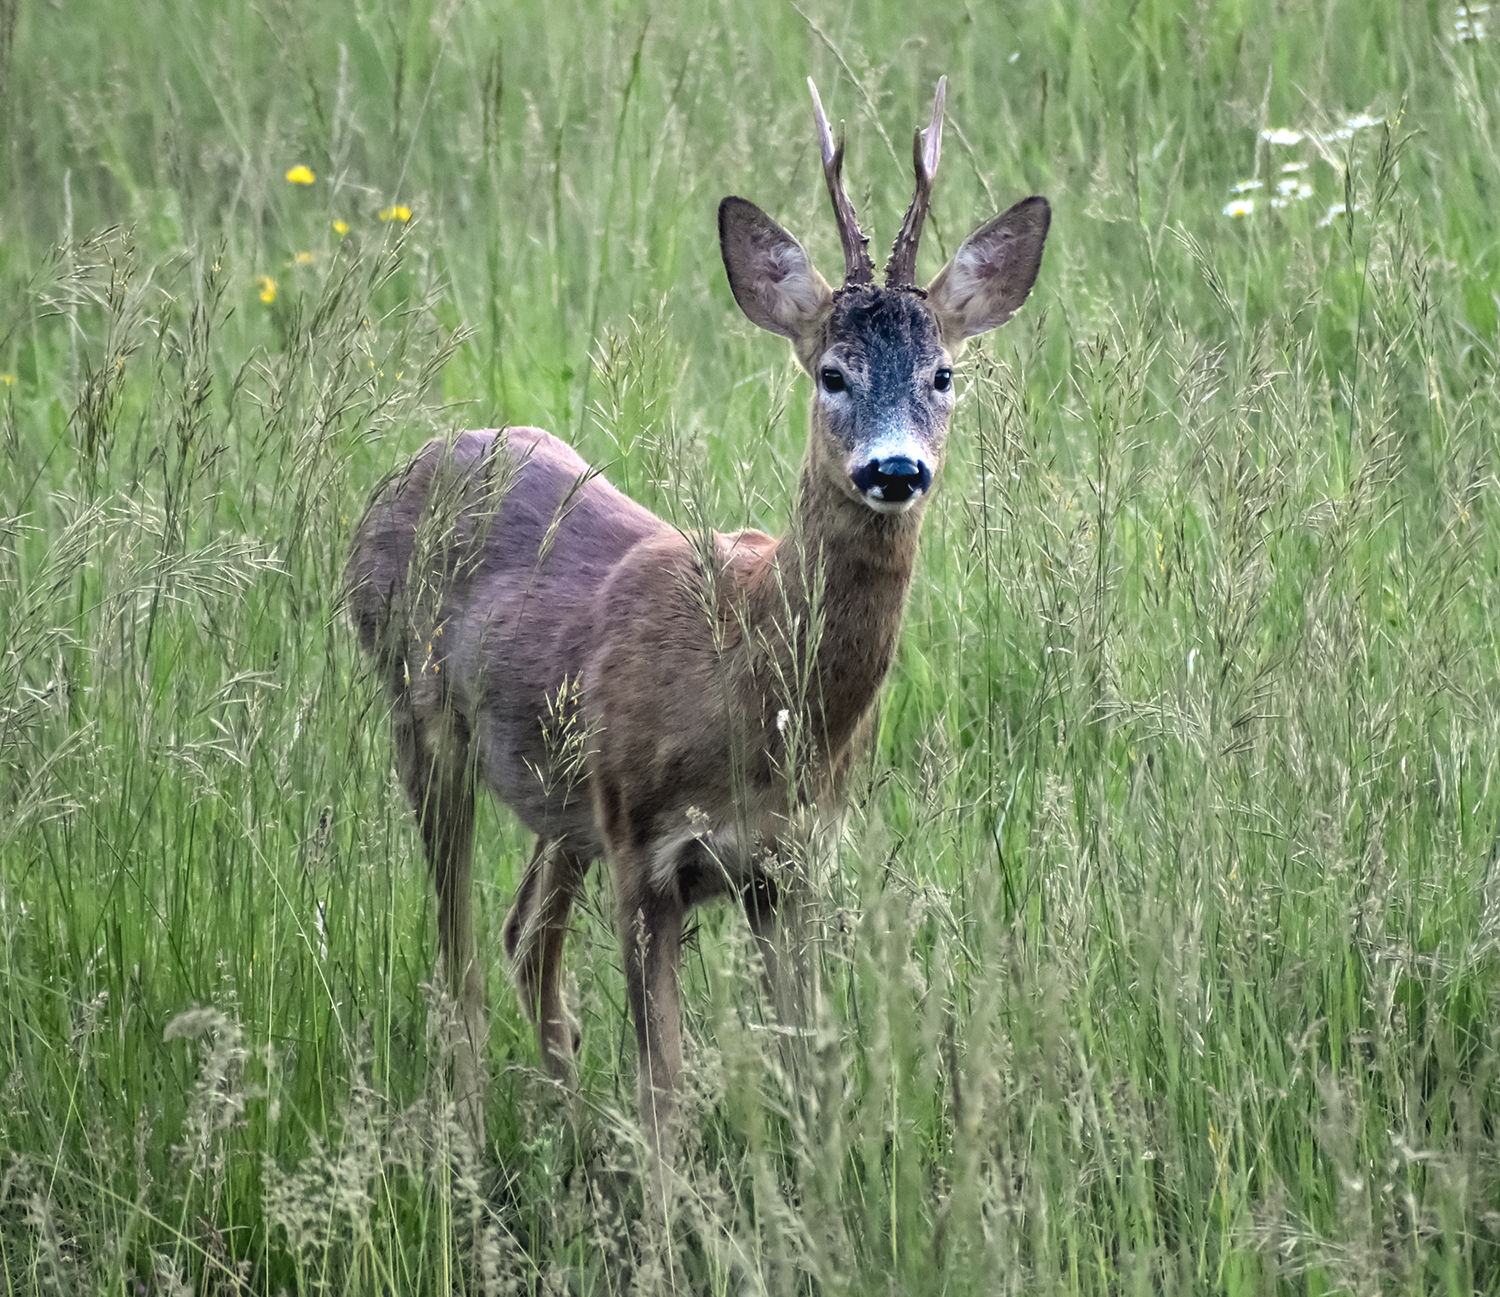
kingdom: Animalia
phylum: Chordata
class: Mammalia
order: Artiodactyla
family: Cervidae
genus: Capreolus
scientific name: Capreolus capreolus
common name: Western roe deer
